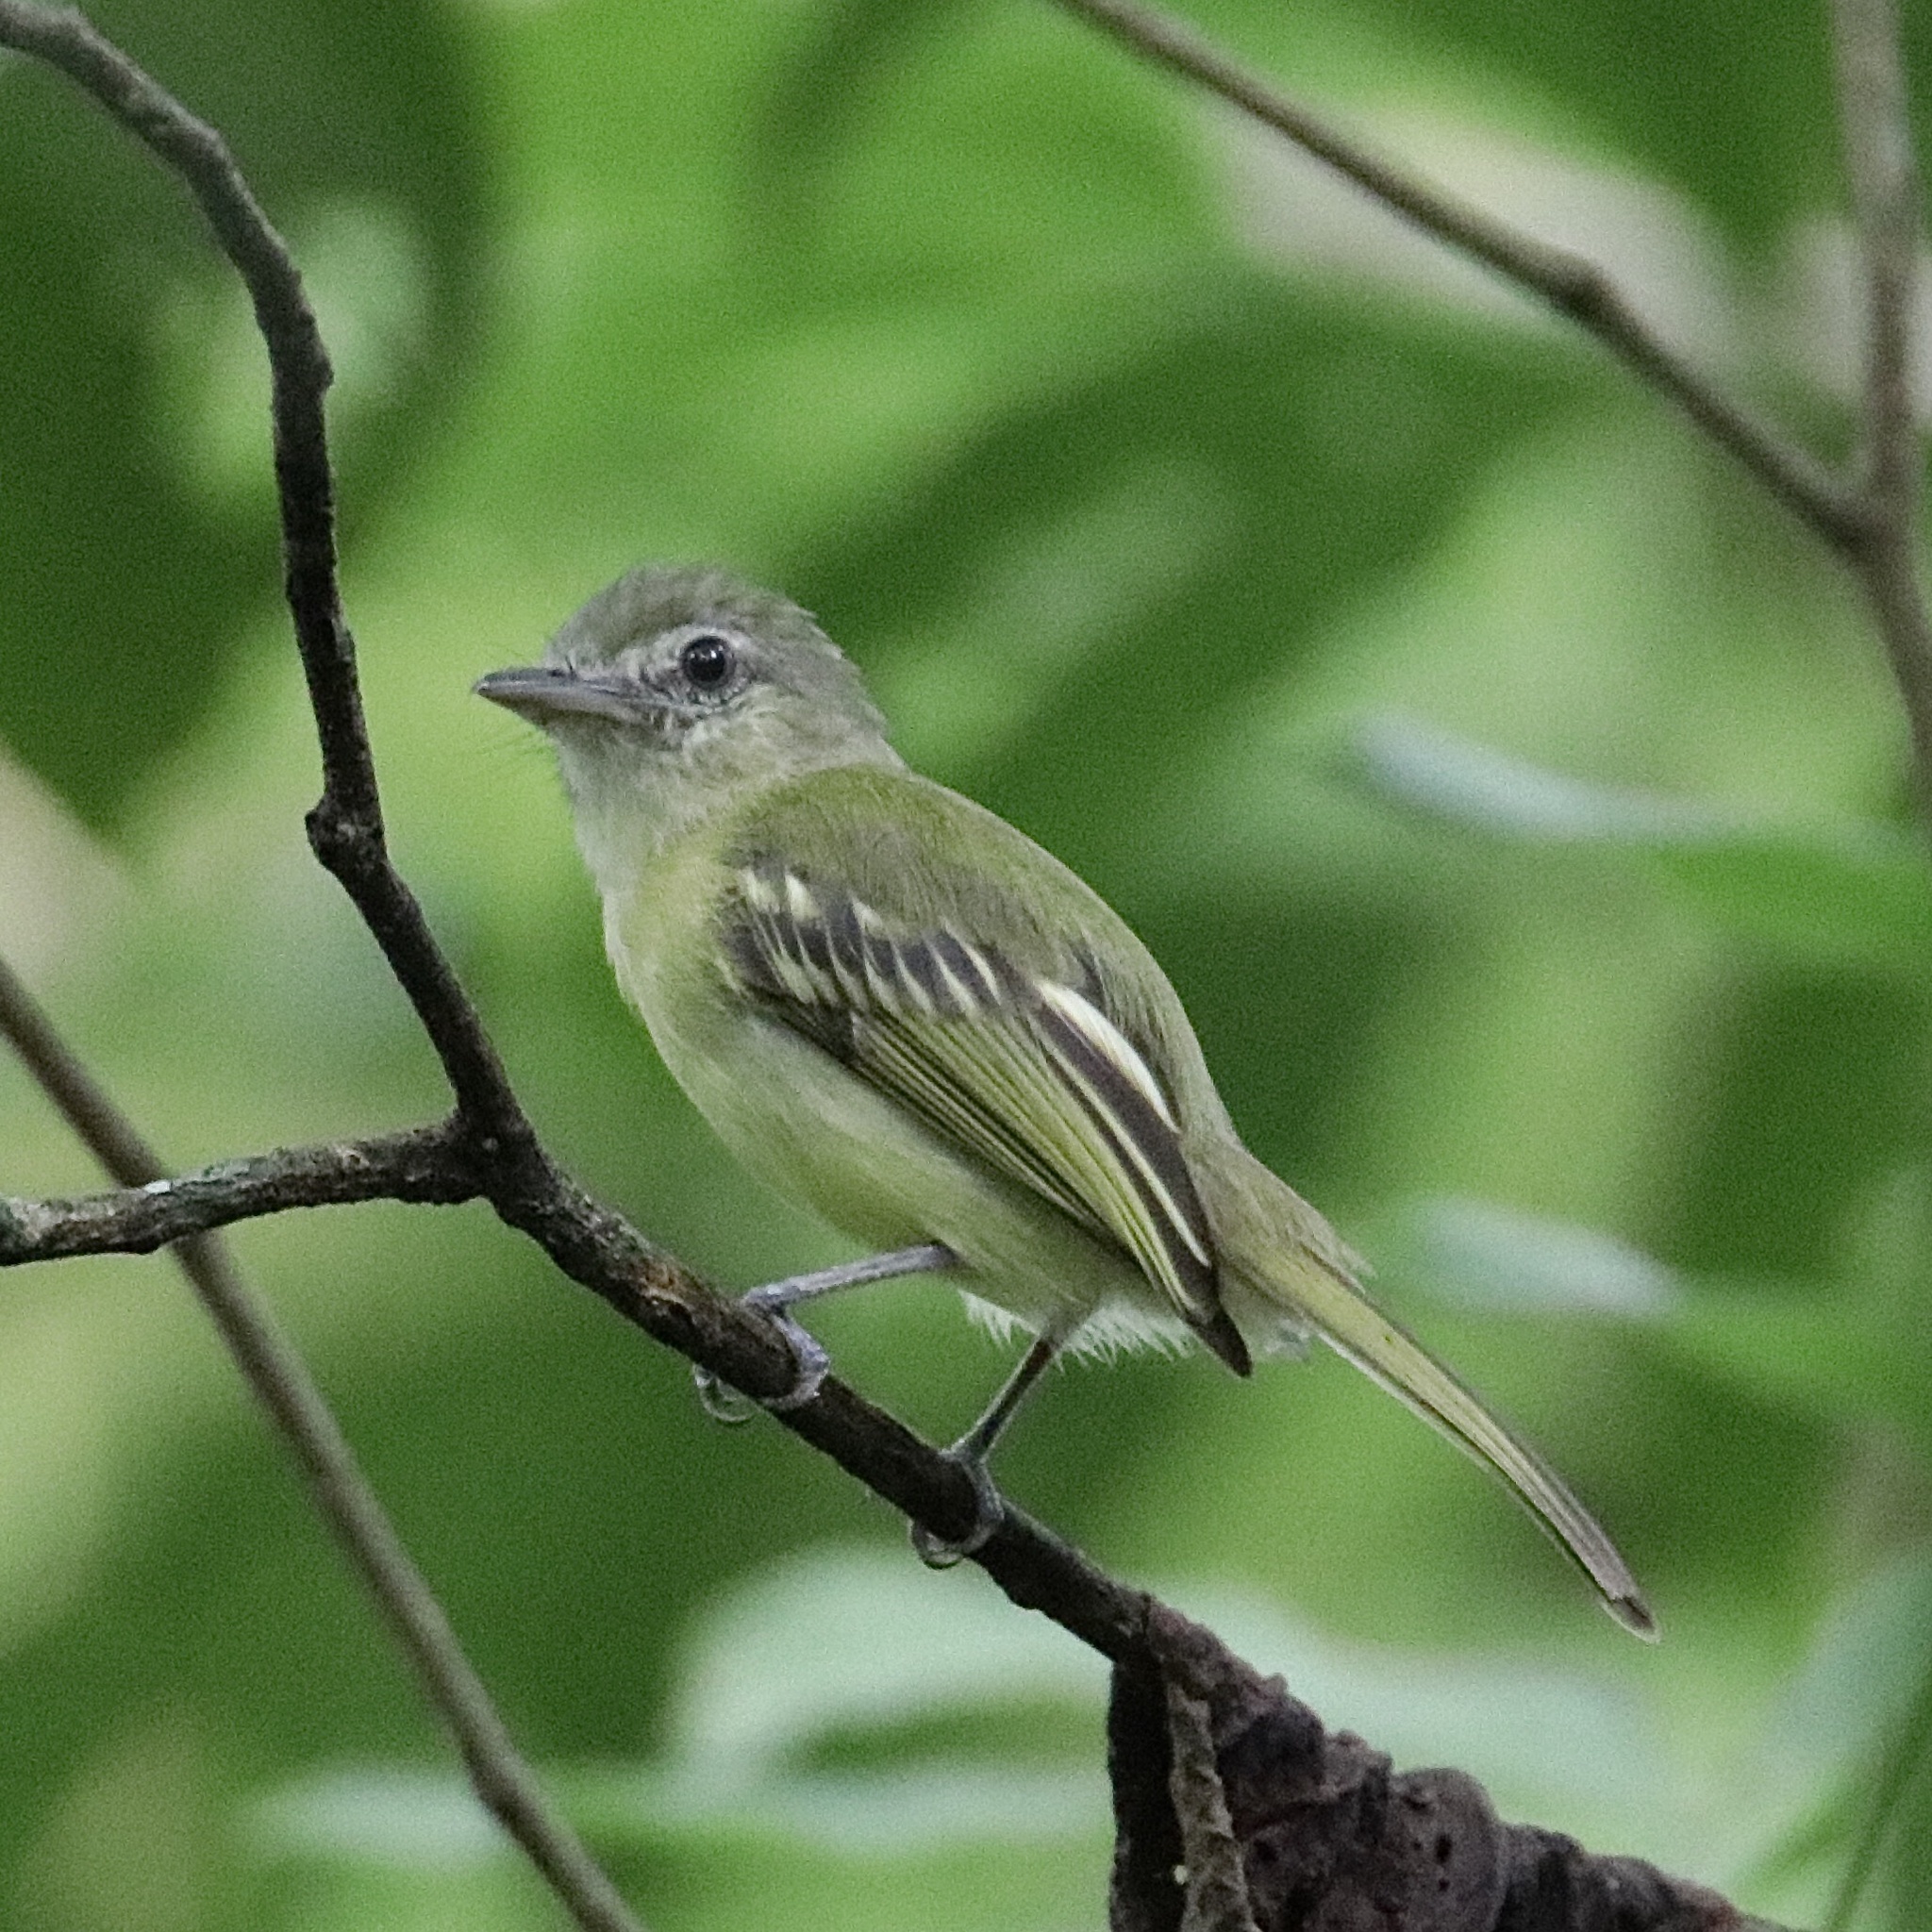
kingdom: Animalia
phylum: Chordata
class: Aves
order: Passeriformes
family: Tyrannidae
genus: Tolmomyias
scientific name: Tolmomyias sulphurescens
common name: Yellow-olive flycatcher
